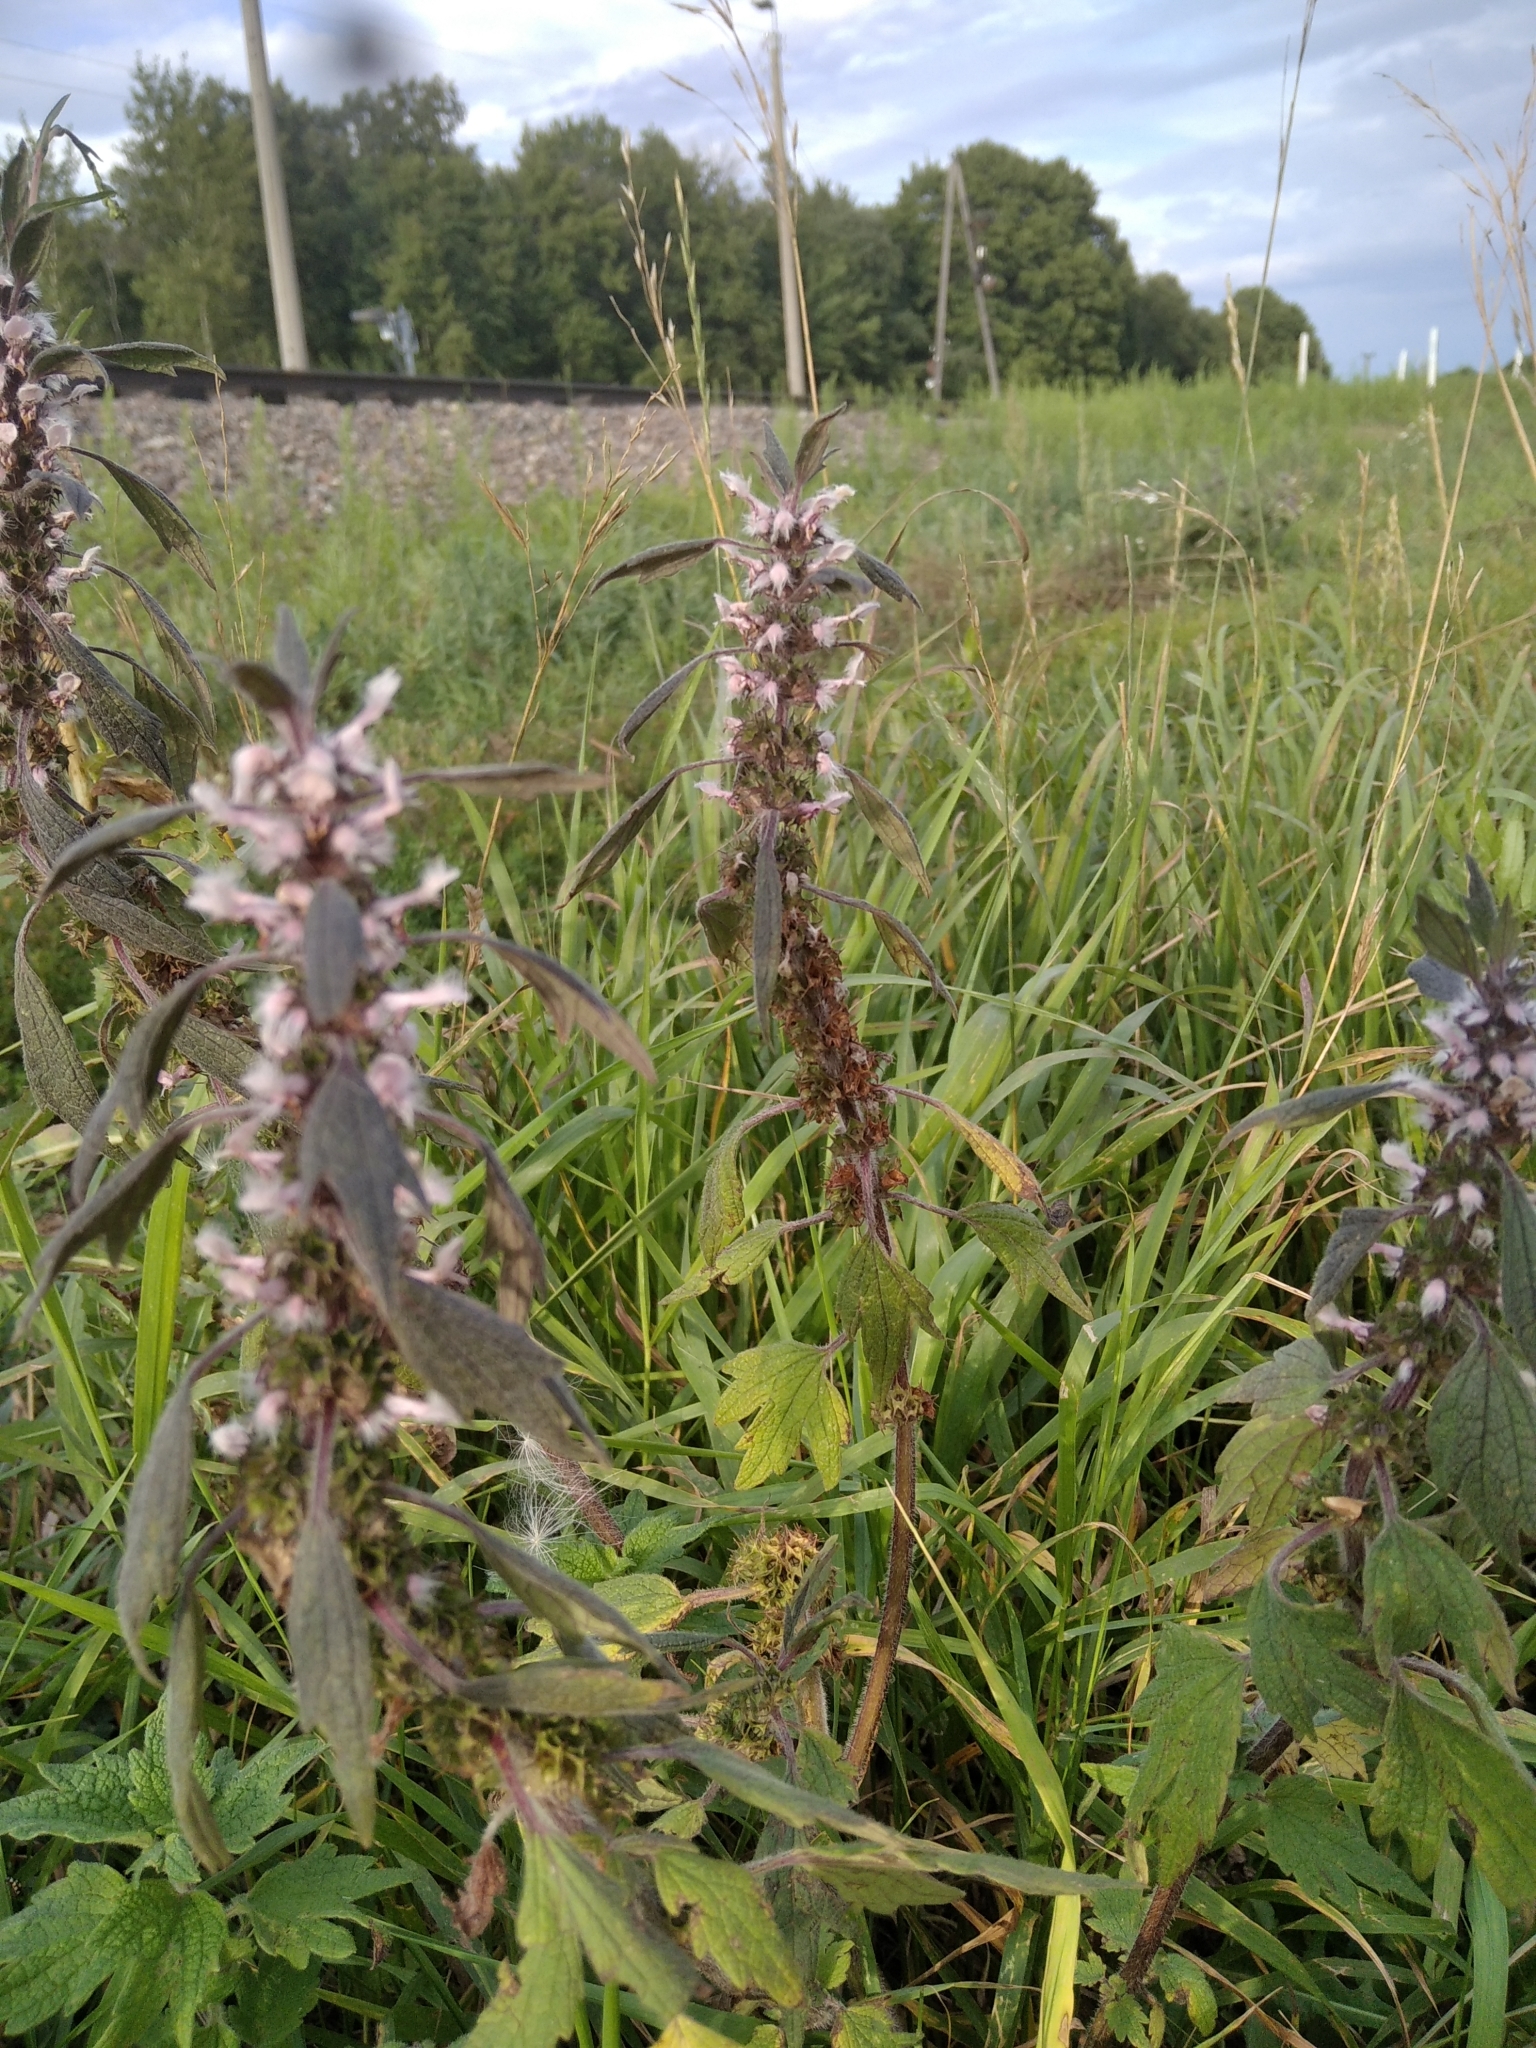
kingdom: Plantae
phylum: Tracheophyta
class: Magnoliopsida
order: Lamiales
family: Lamiaceae
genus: Leonurus
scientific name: Leonurus quinquelobatus
